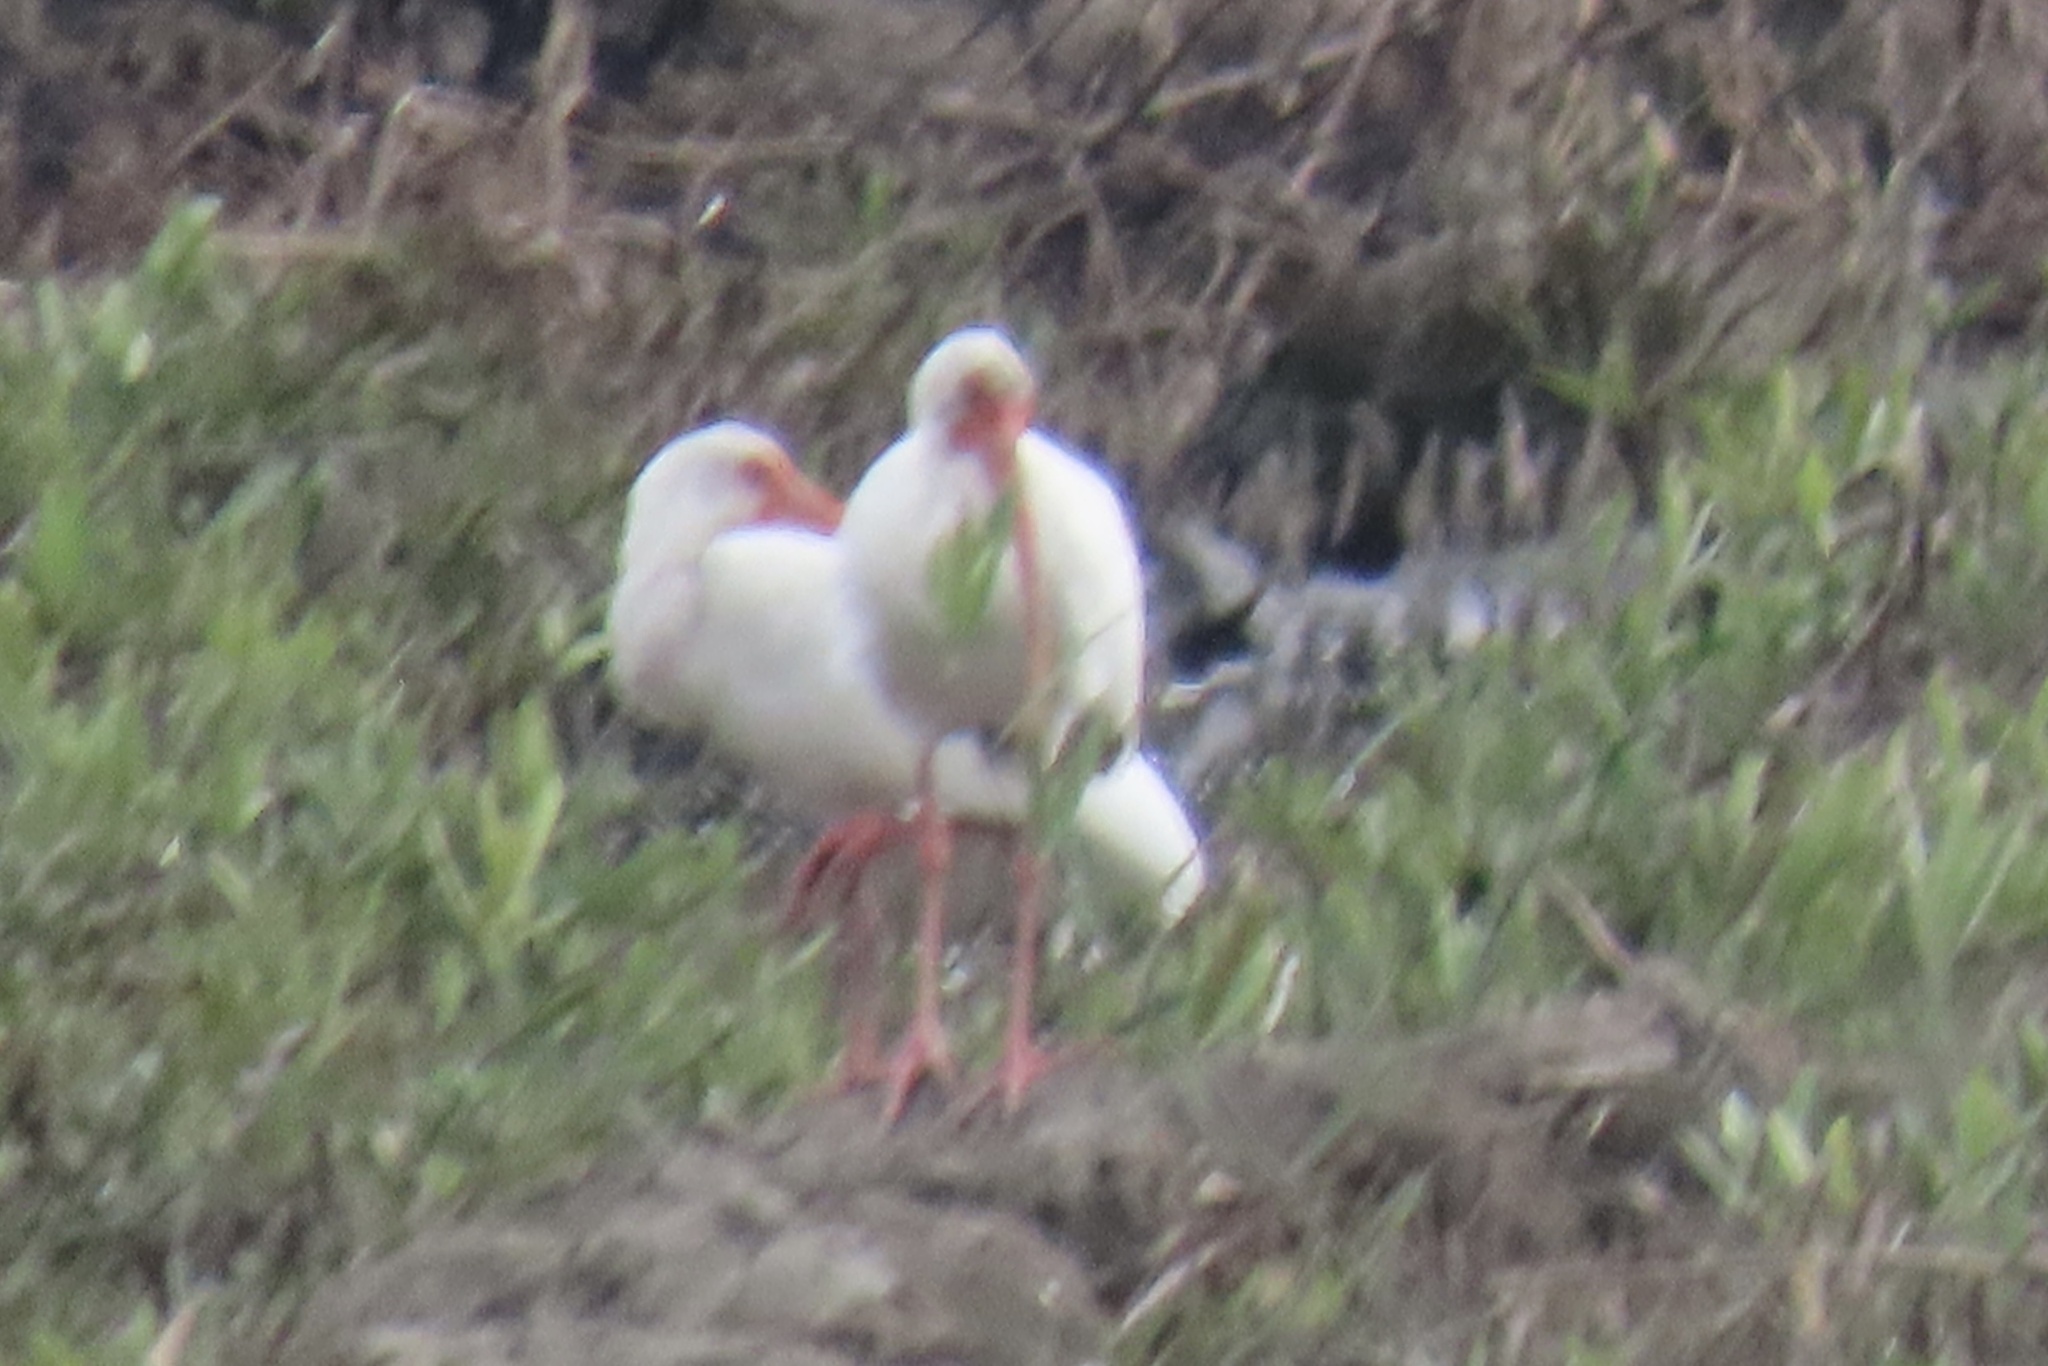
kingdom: Animalia
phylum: Chordata
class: Aves
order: Pelecaniformes
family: Threskiornithidae
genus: Eudocimus
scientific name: Eudocimus albus
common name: White ibis
